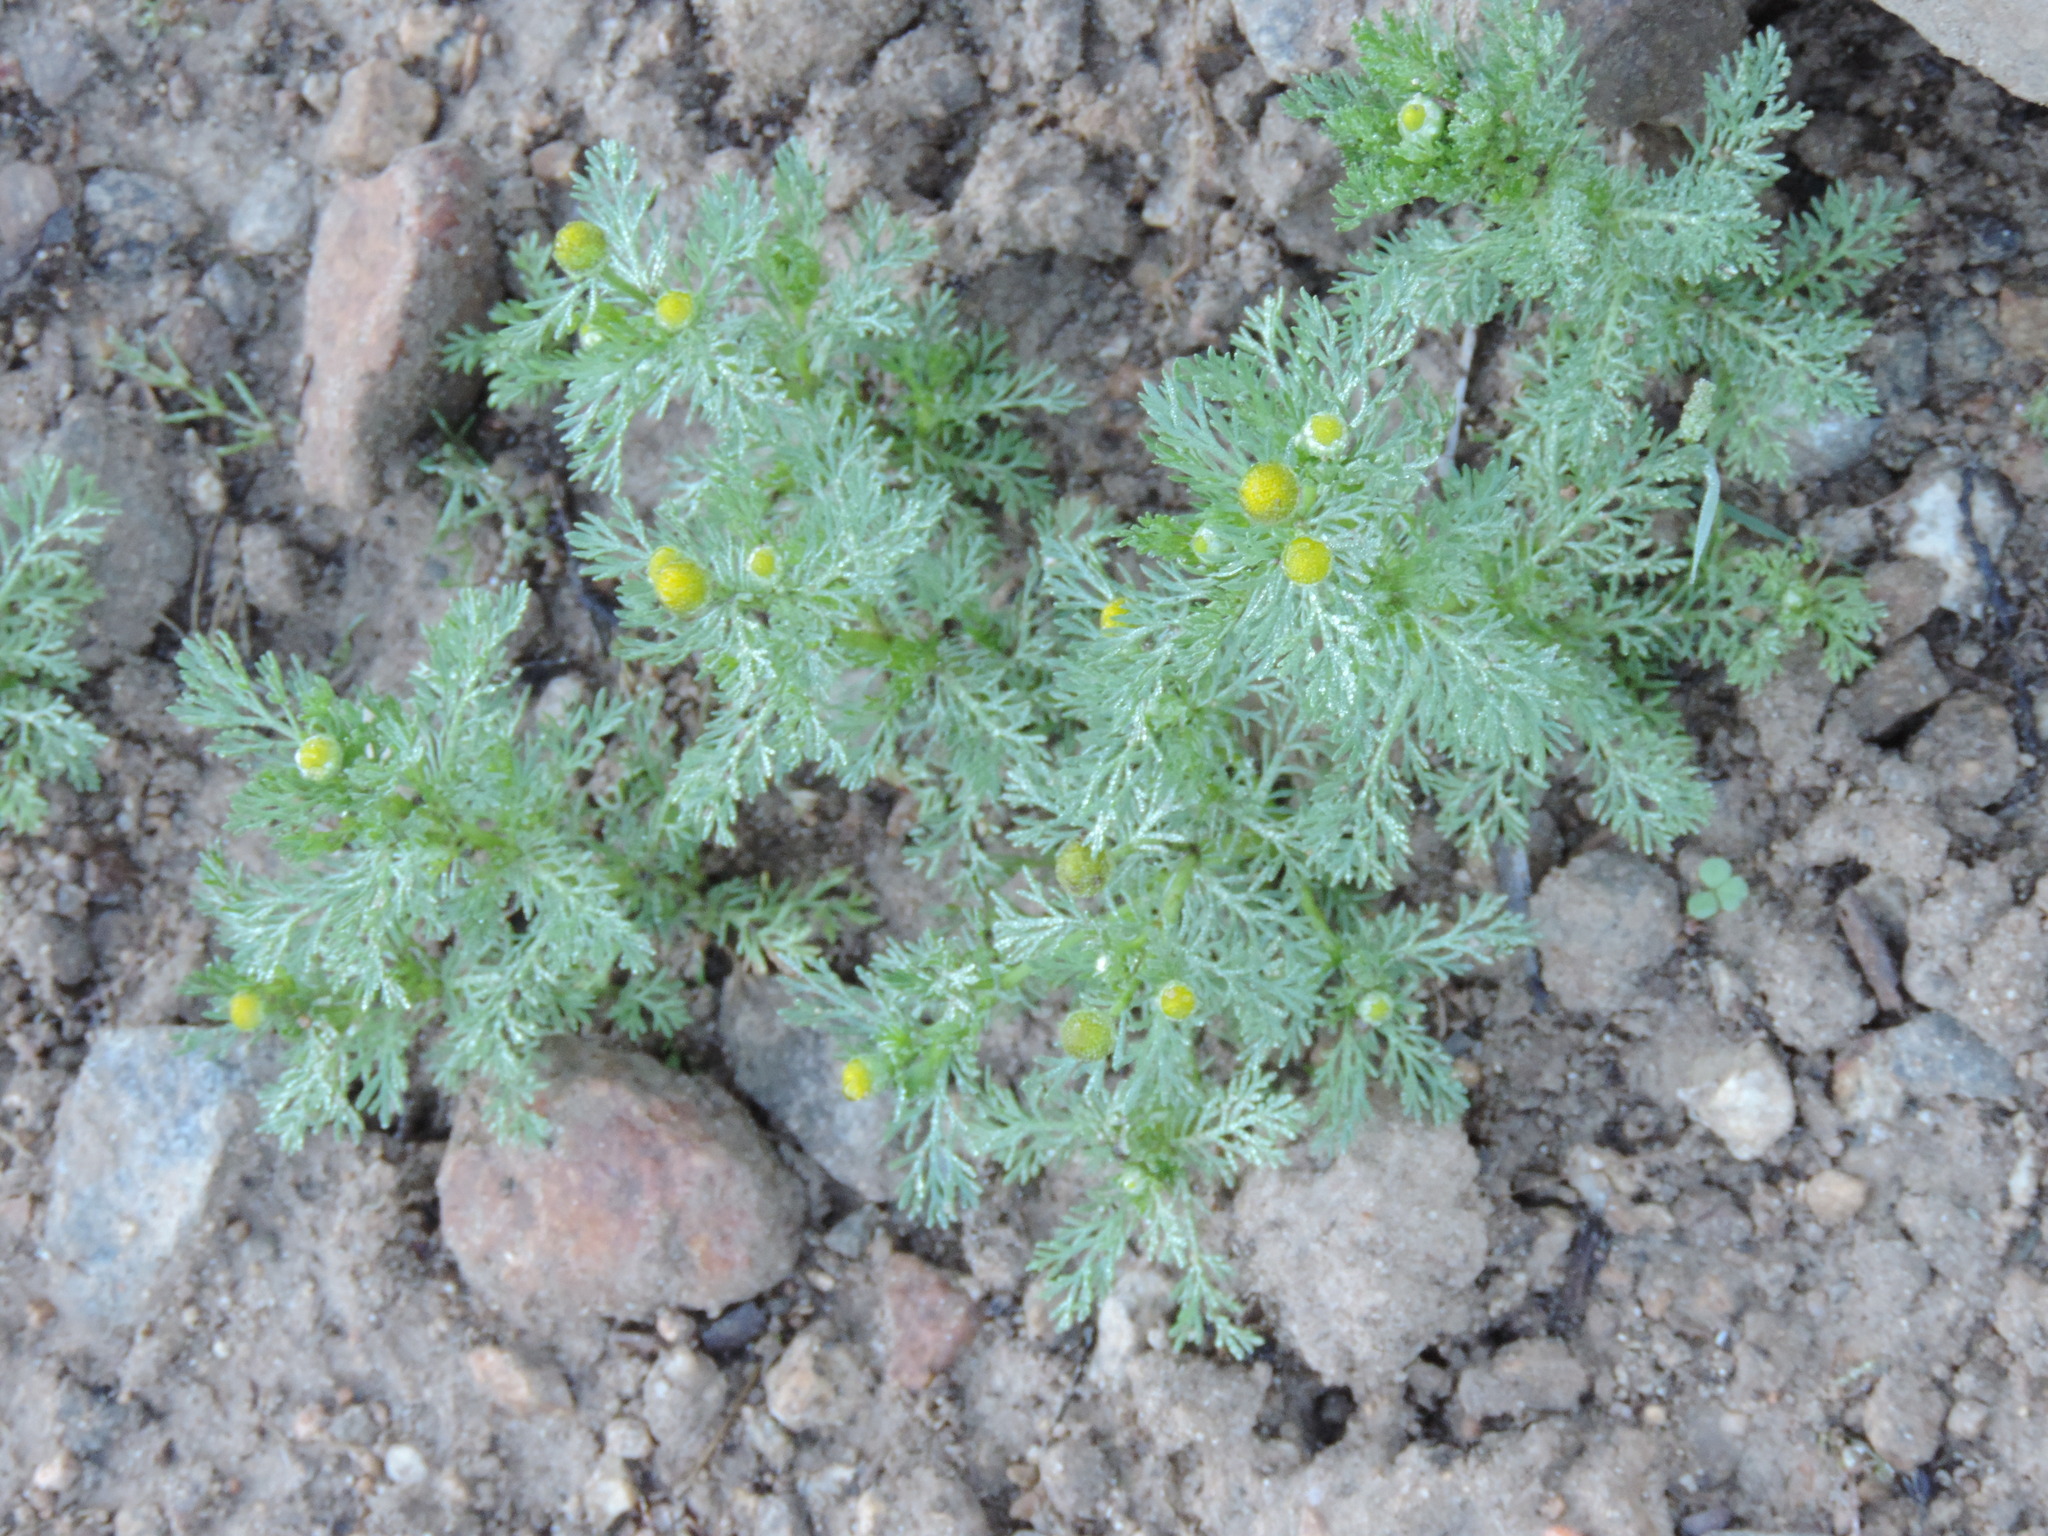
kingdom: Plantae
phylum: Tracheophyta
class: Magnoliopsida
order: Asterales
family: Asteraceae
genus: Matricaria
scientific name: Matricaria discoidea
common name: Disc mayweed
